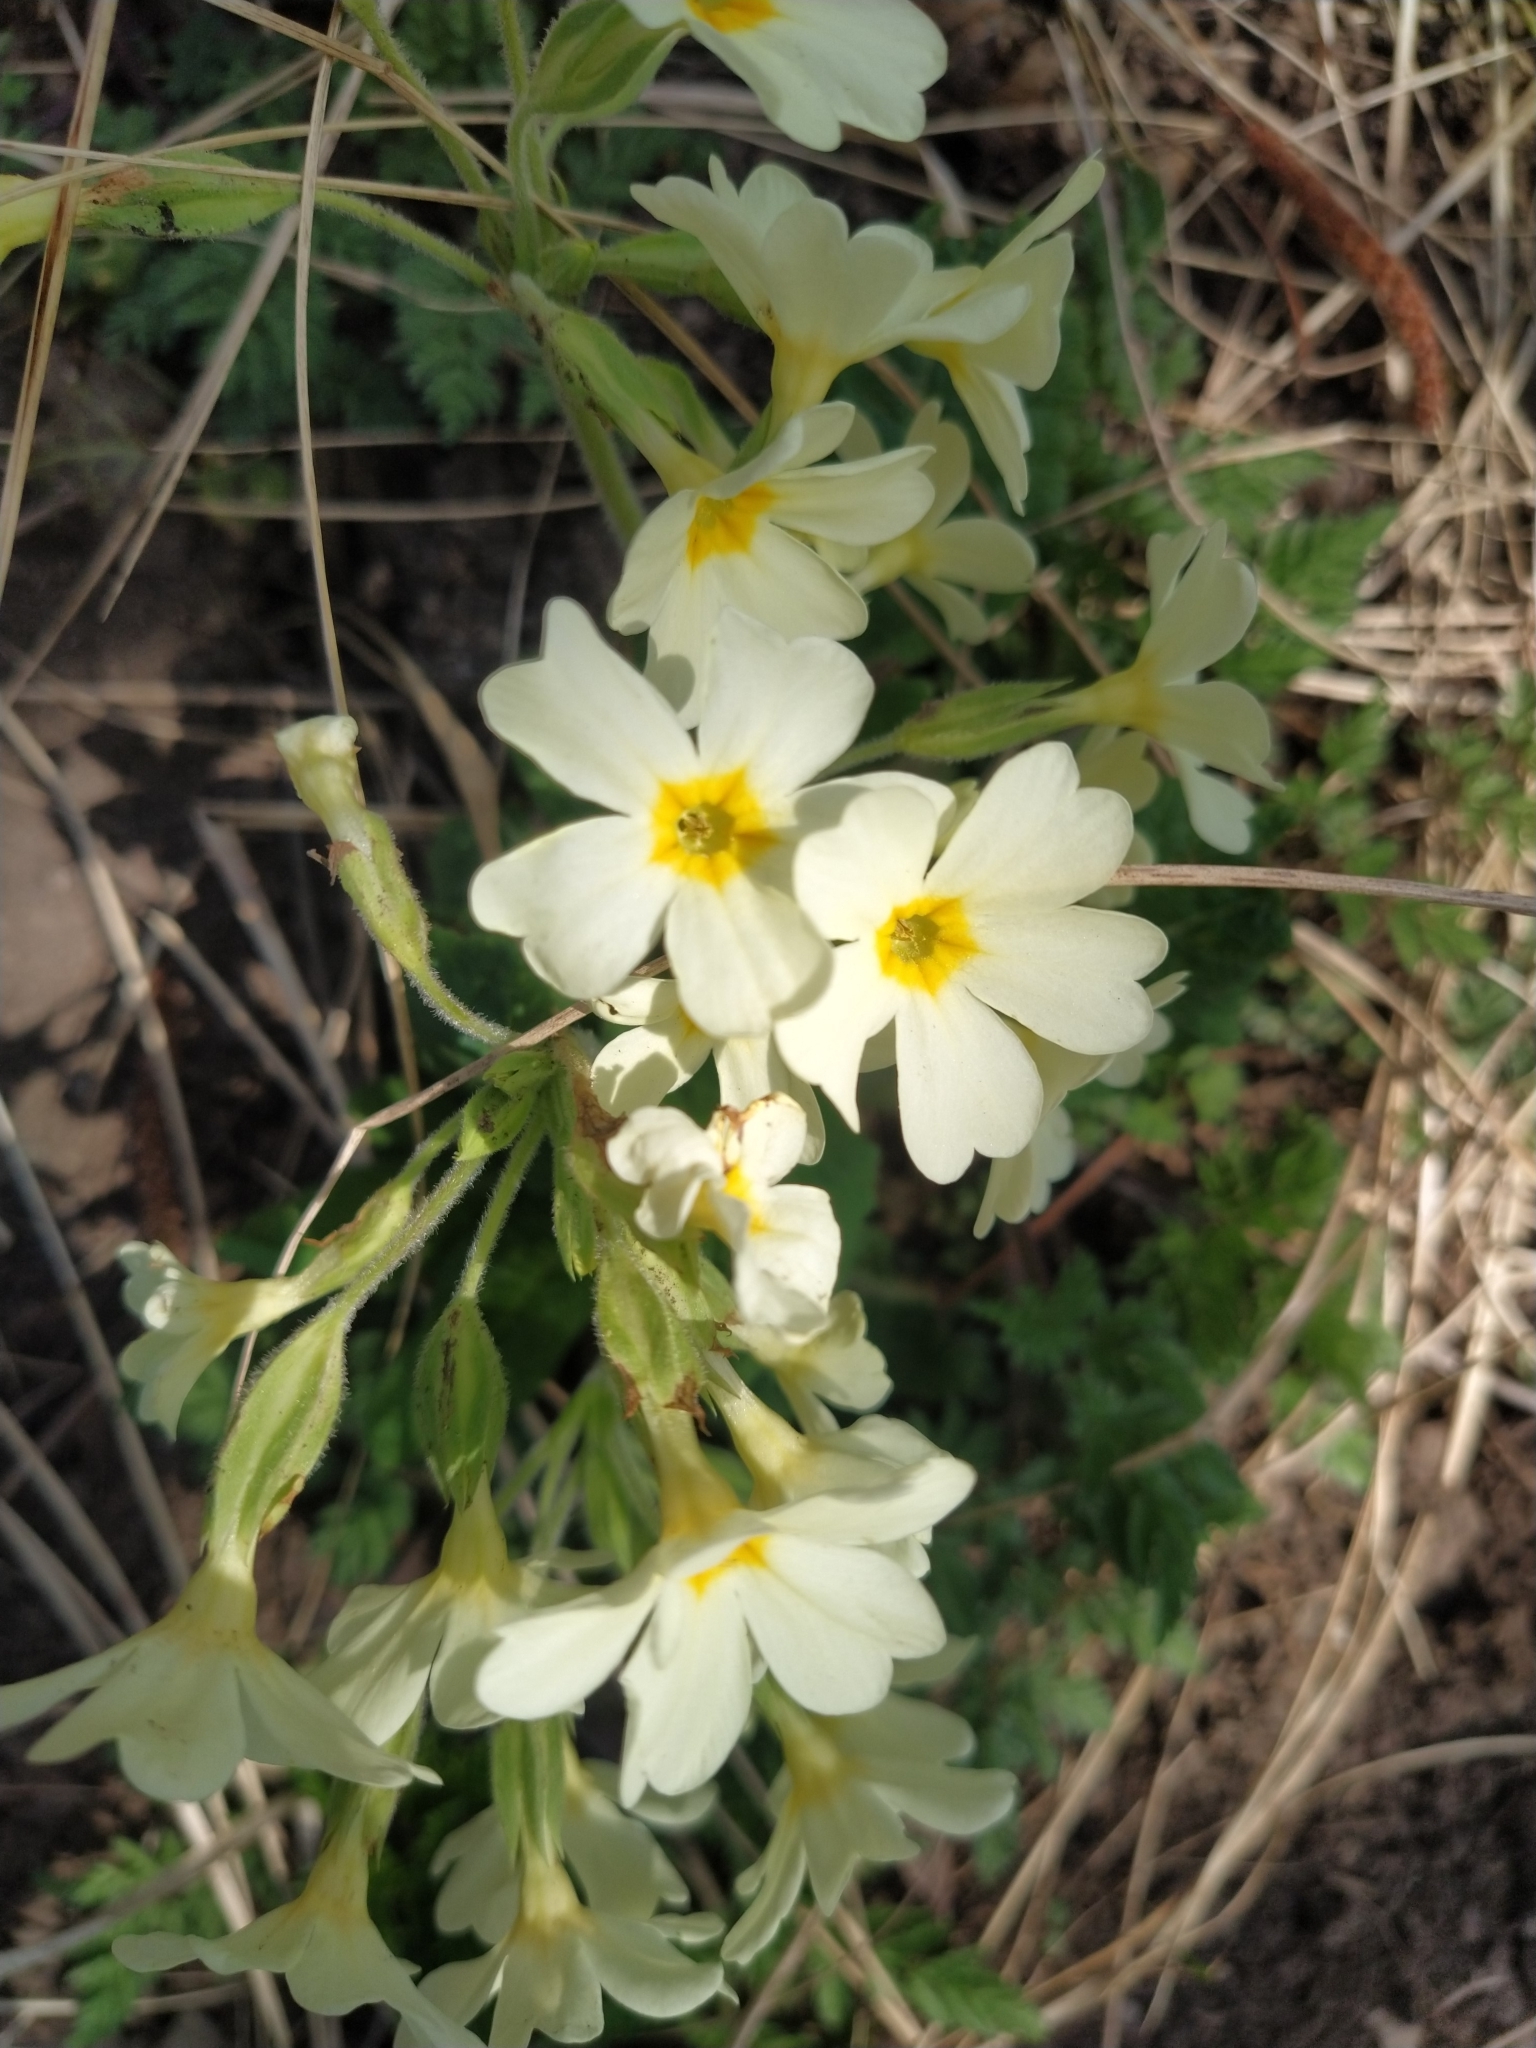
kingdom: Plantae
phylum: Tracheophyta
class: Magnoliopsida
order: Ericales
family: Primulaceae
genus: Primula
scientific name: Primula vulgaris
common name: Primrose
